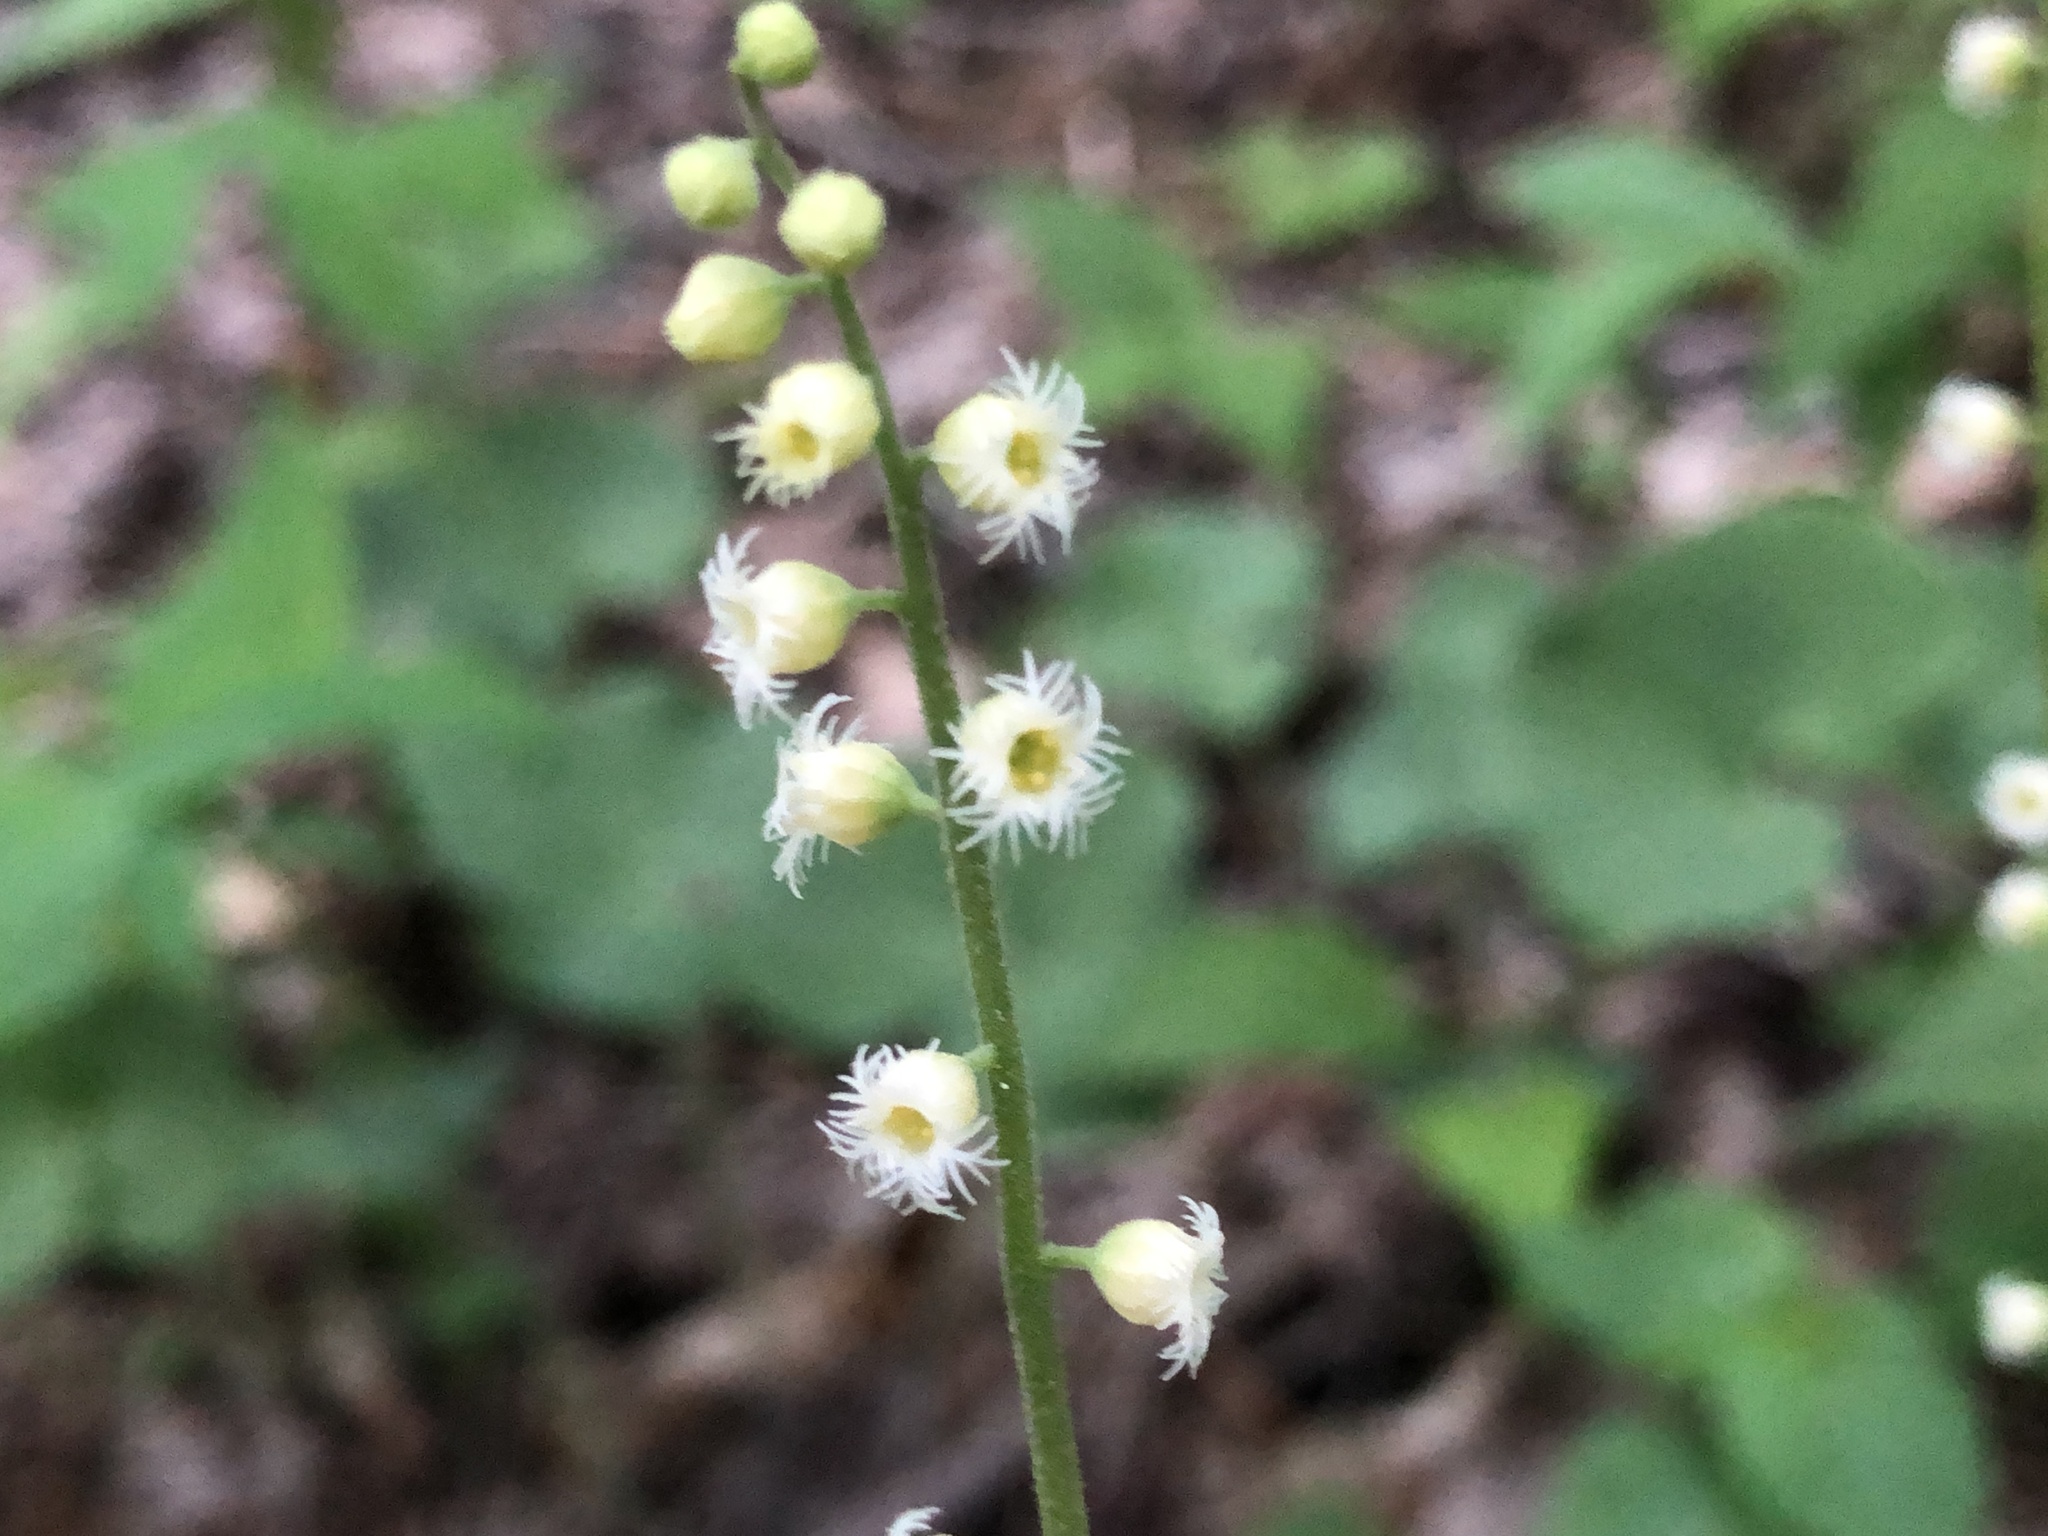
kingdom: Plantae
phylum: Tracheophyta
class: Magnoliopsida
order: Saxifragales
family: Saxifragaceae
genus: Mitella
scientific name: Mitella diphylla
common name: Coolwort
